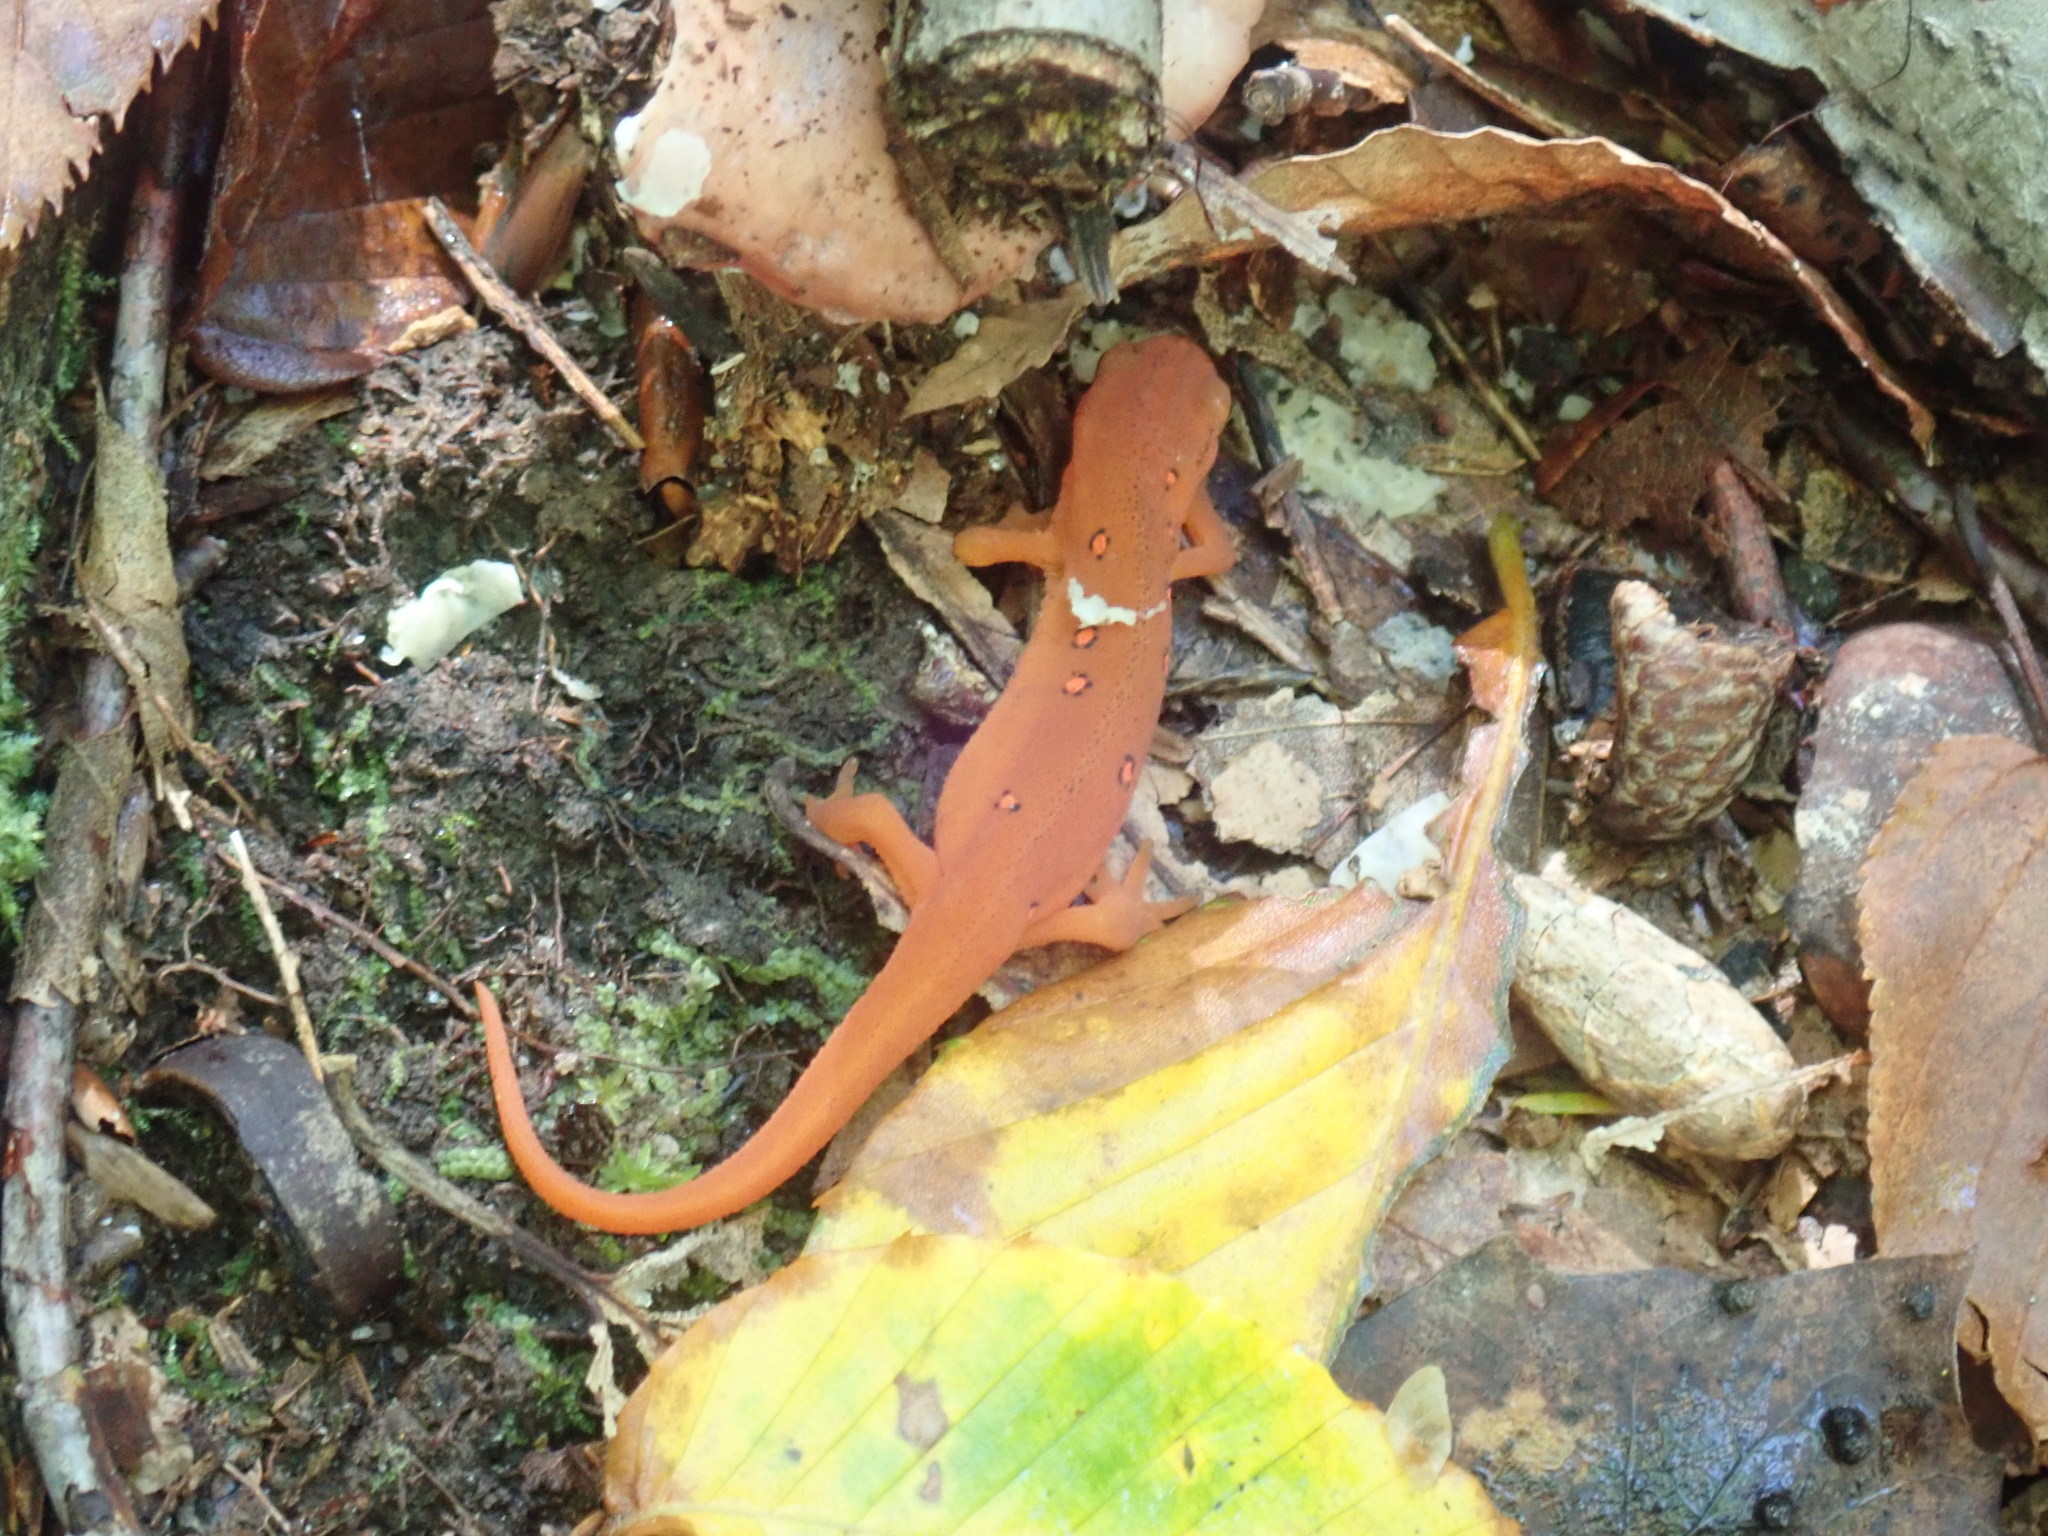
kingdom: Animalia
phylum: Chordata
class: Amphibia
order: Caudata
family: Salamandridae
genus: Notophthalmus
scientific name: Notophthalmus viridescens
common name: Eastern newt
